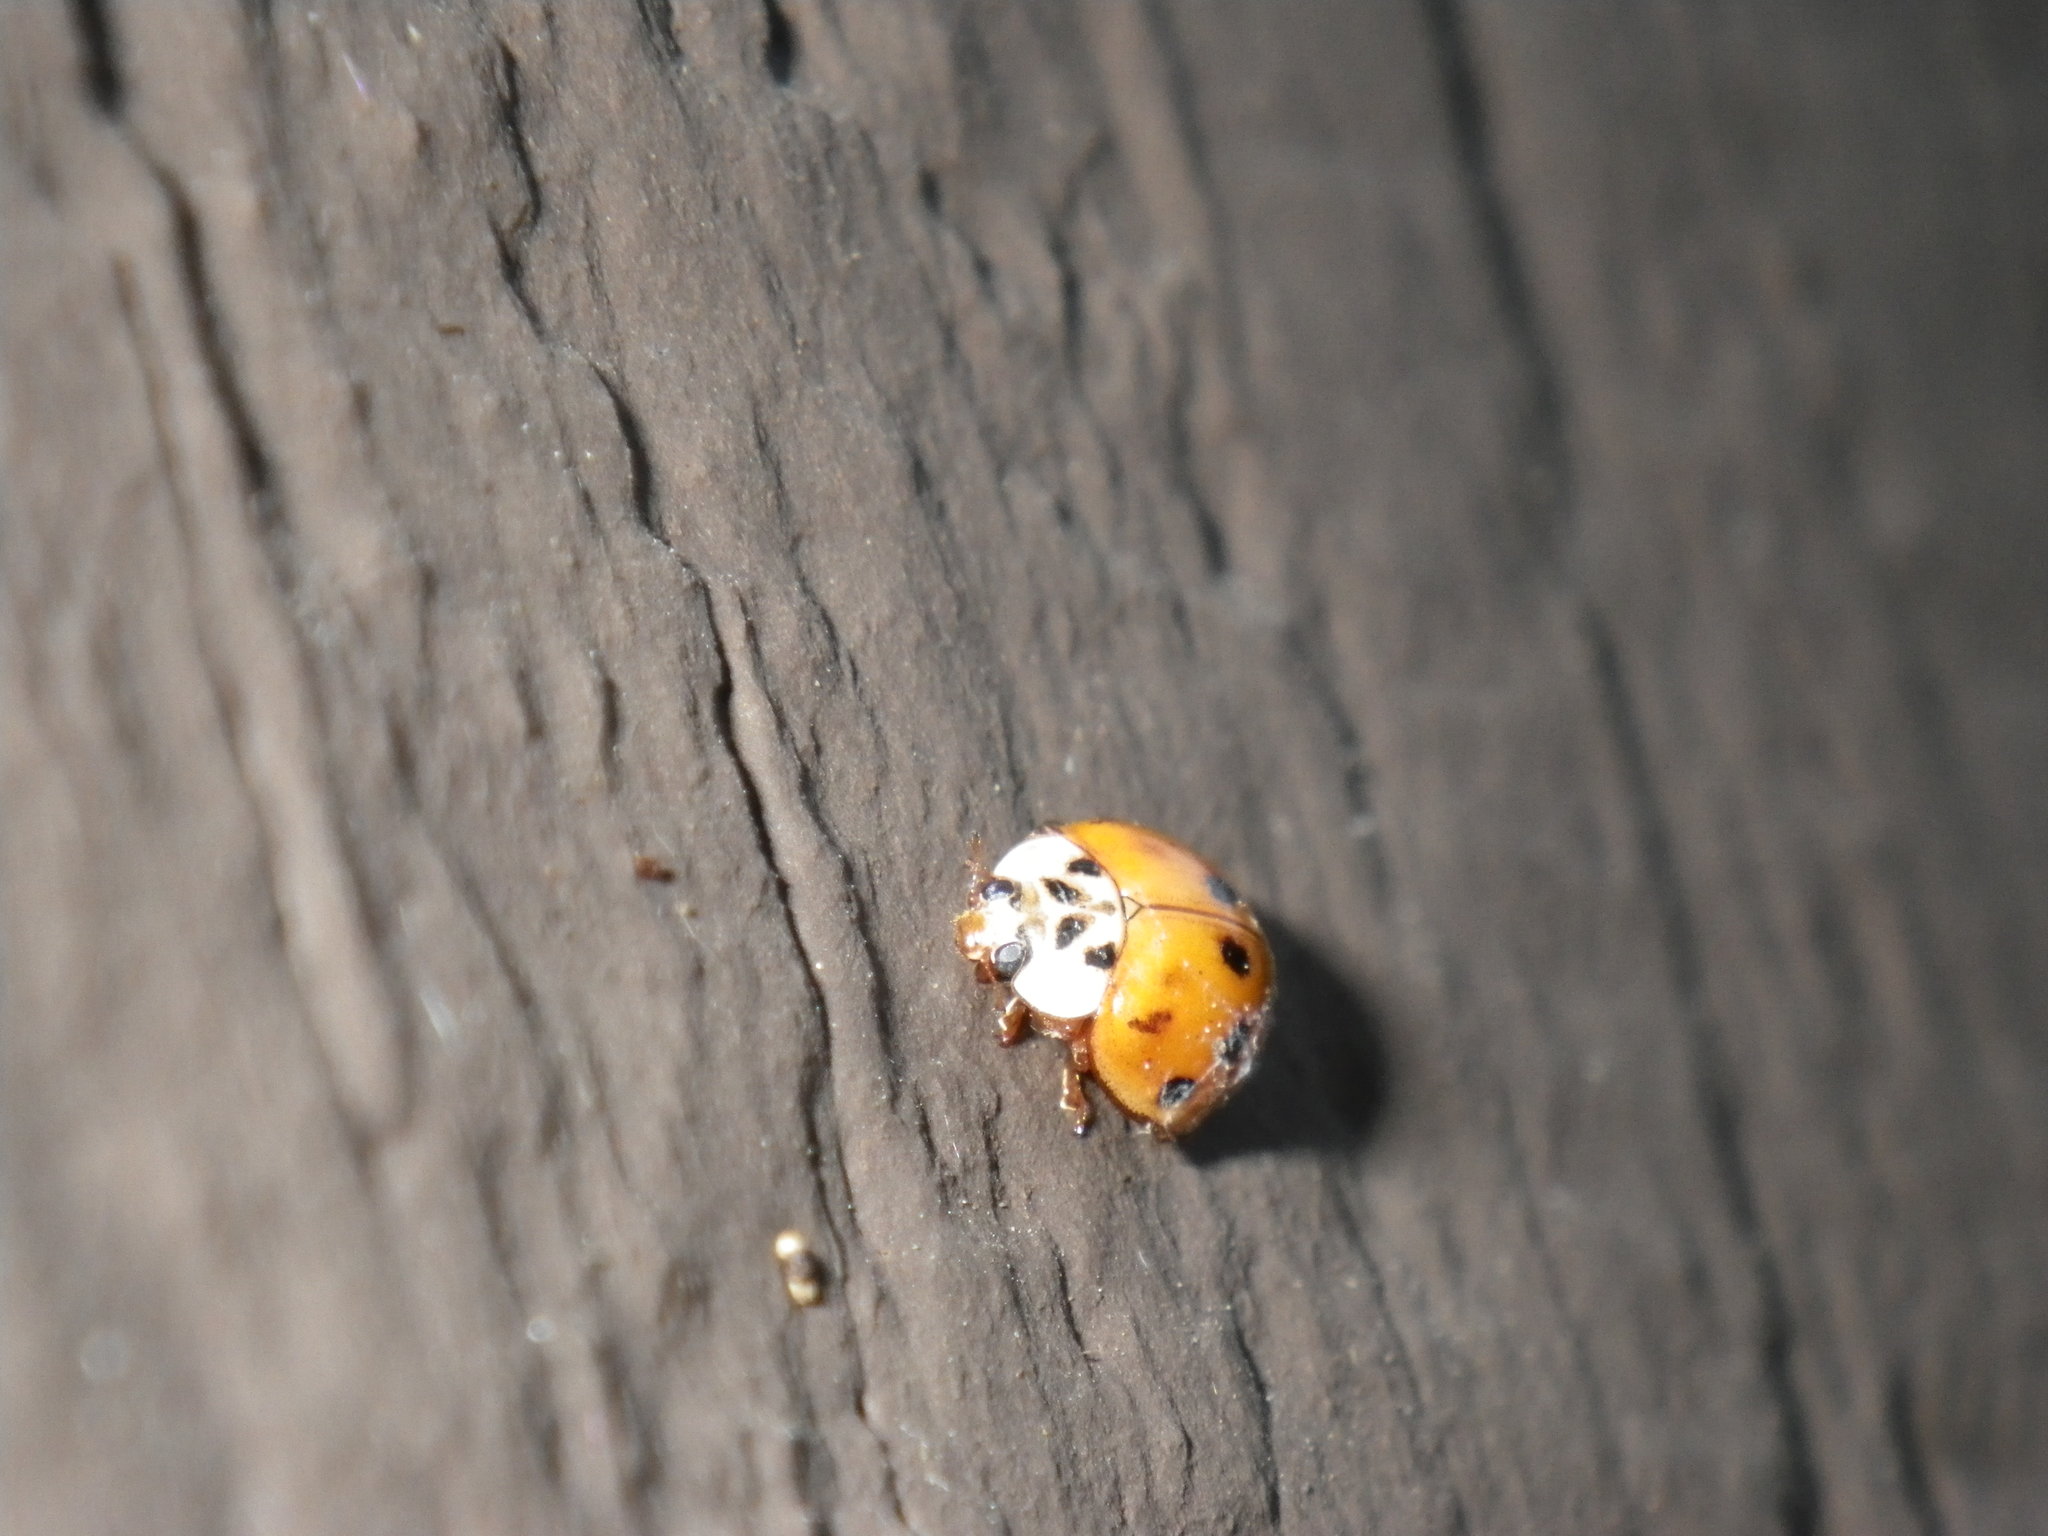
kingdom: Animalia
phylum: Arthropoda
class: Insecta
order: Coleoptera
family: Coccinellidae
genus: Harmonia
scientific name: Harmonia axyridis
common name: Harlequin ladybird
